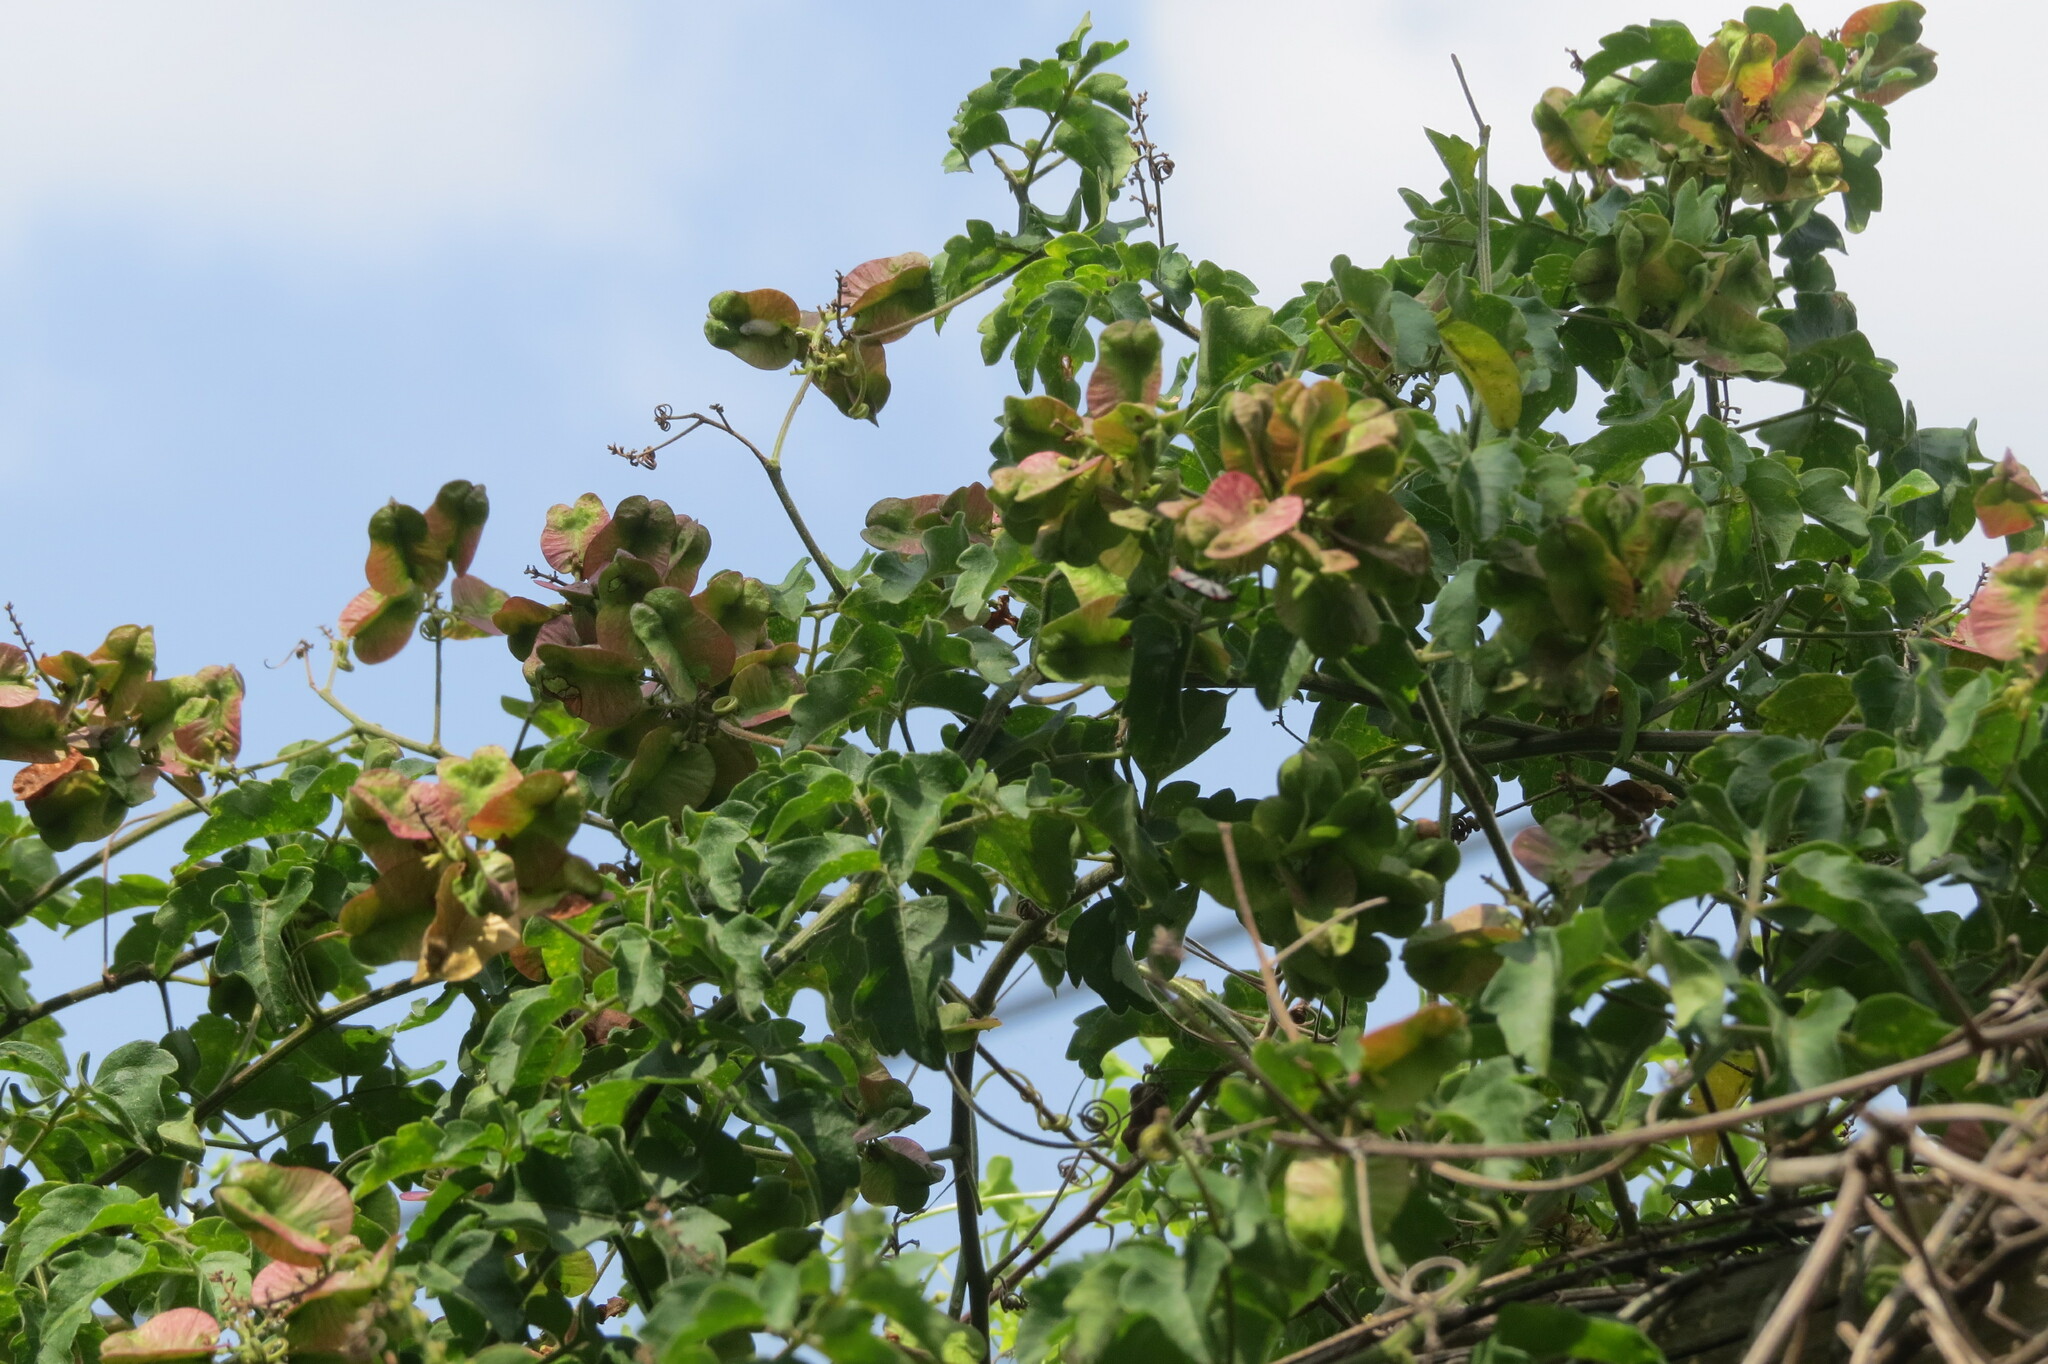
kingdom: Plantae
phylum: Tracheophyta
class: Magnoliopsida
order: Sapindales
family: Sapindaceae
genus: Serjania
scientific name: Serjania brachycarpa
